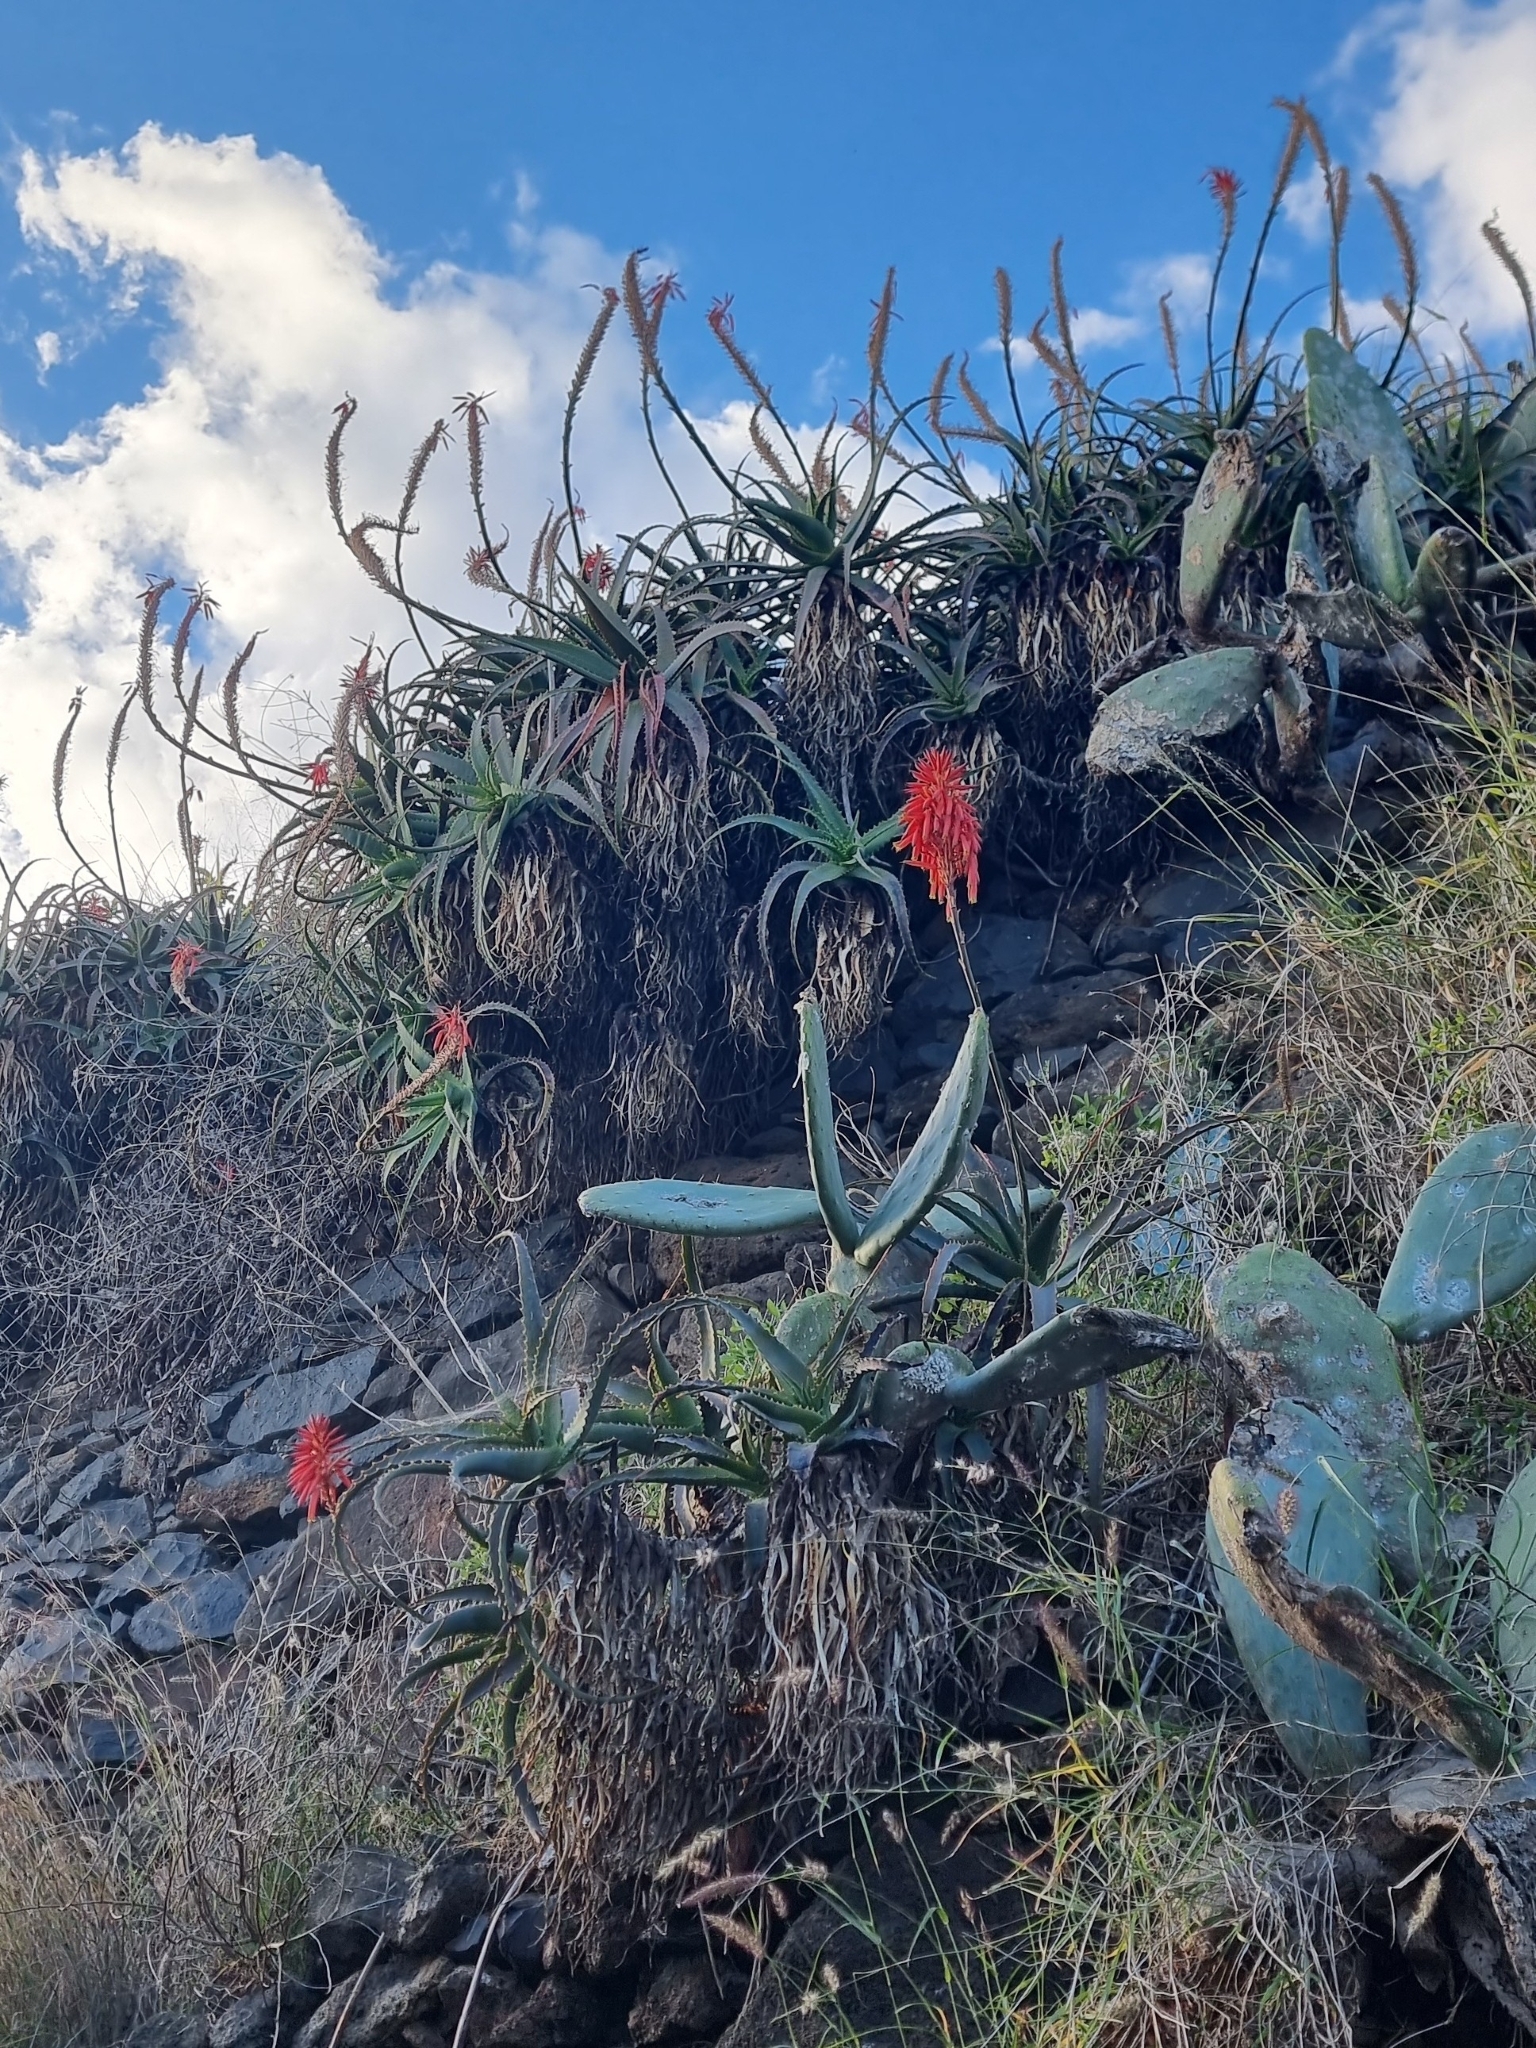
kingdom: Plantae
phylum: Tracheophyta
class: Liliopsida
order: Asparagales
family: Asphodelaceae
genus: Aloe
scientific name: Aloe arborescens
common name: Candelabra aloe
